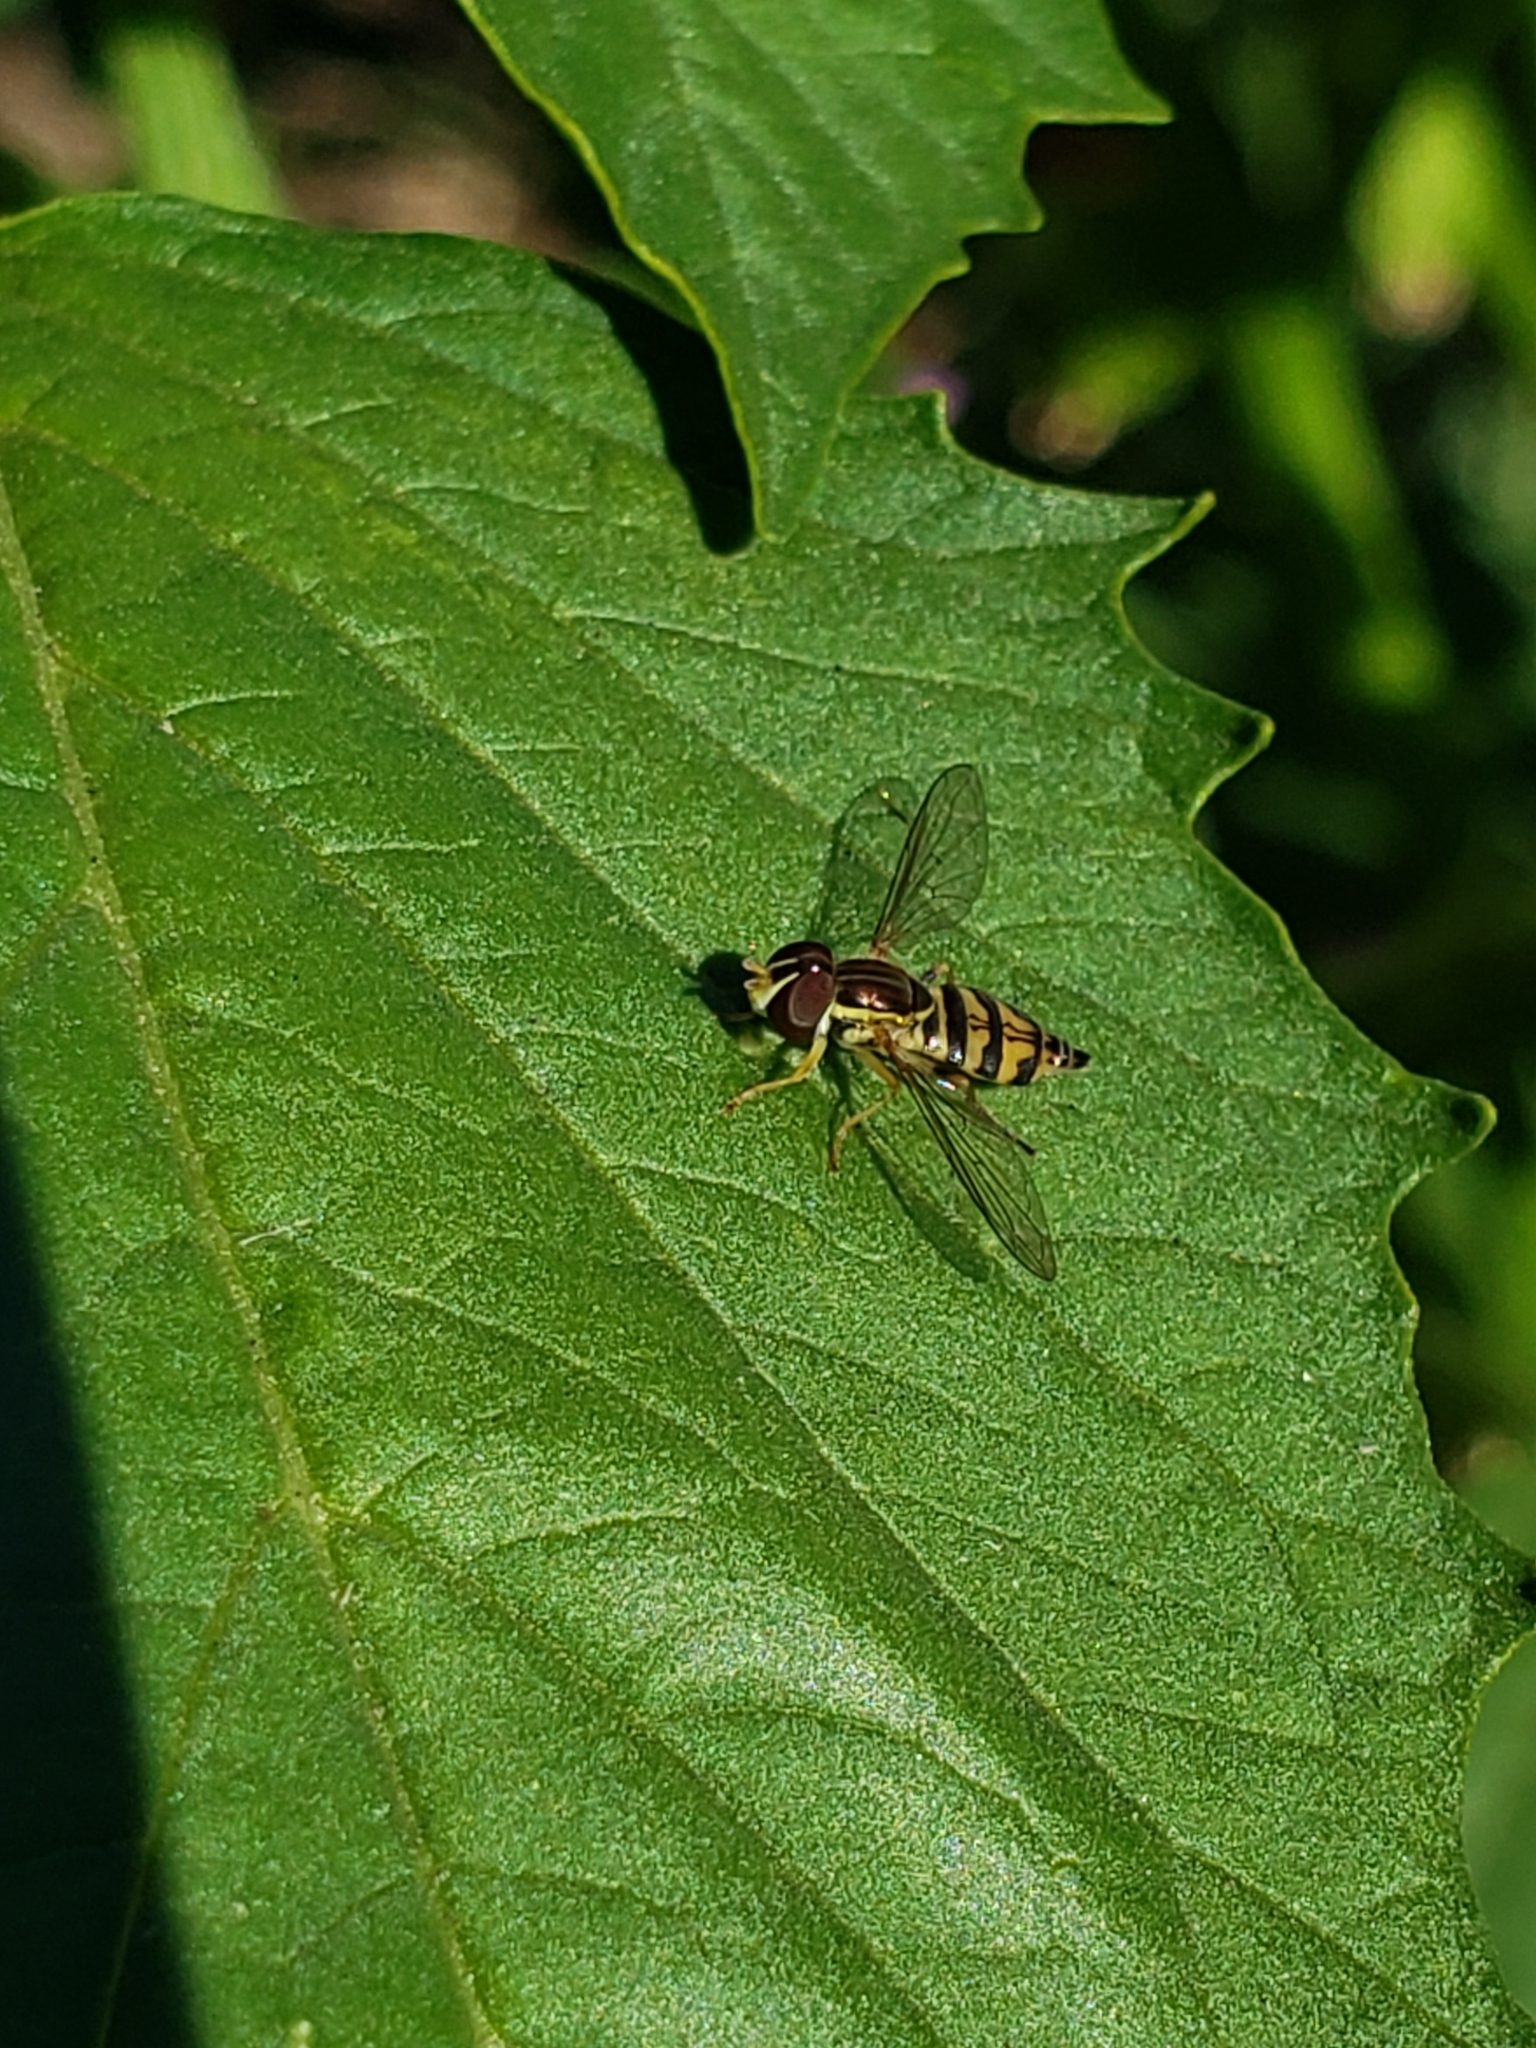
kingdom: Animalia
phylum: Arthropoda
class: Insecta
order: Diptera
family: Syrphidae
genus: Toxomerus
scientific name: Toxomerus occidentalis
